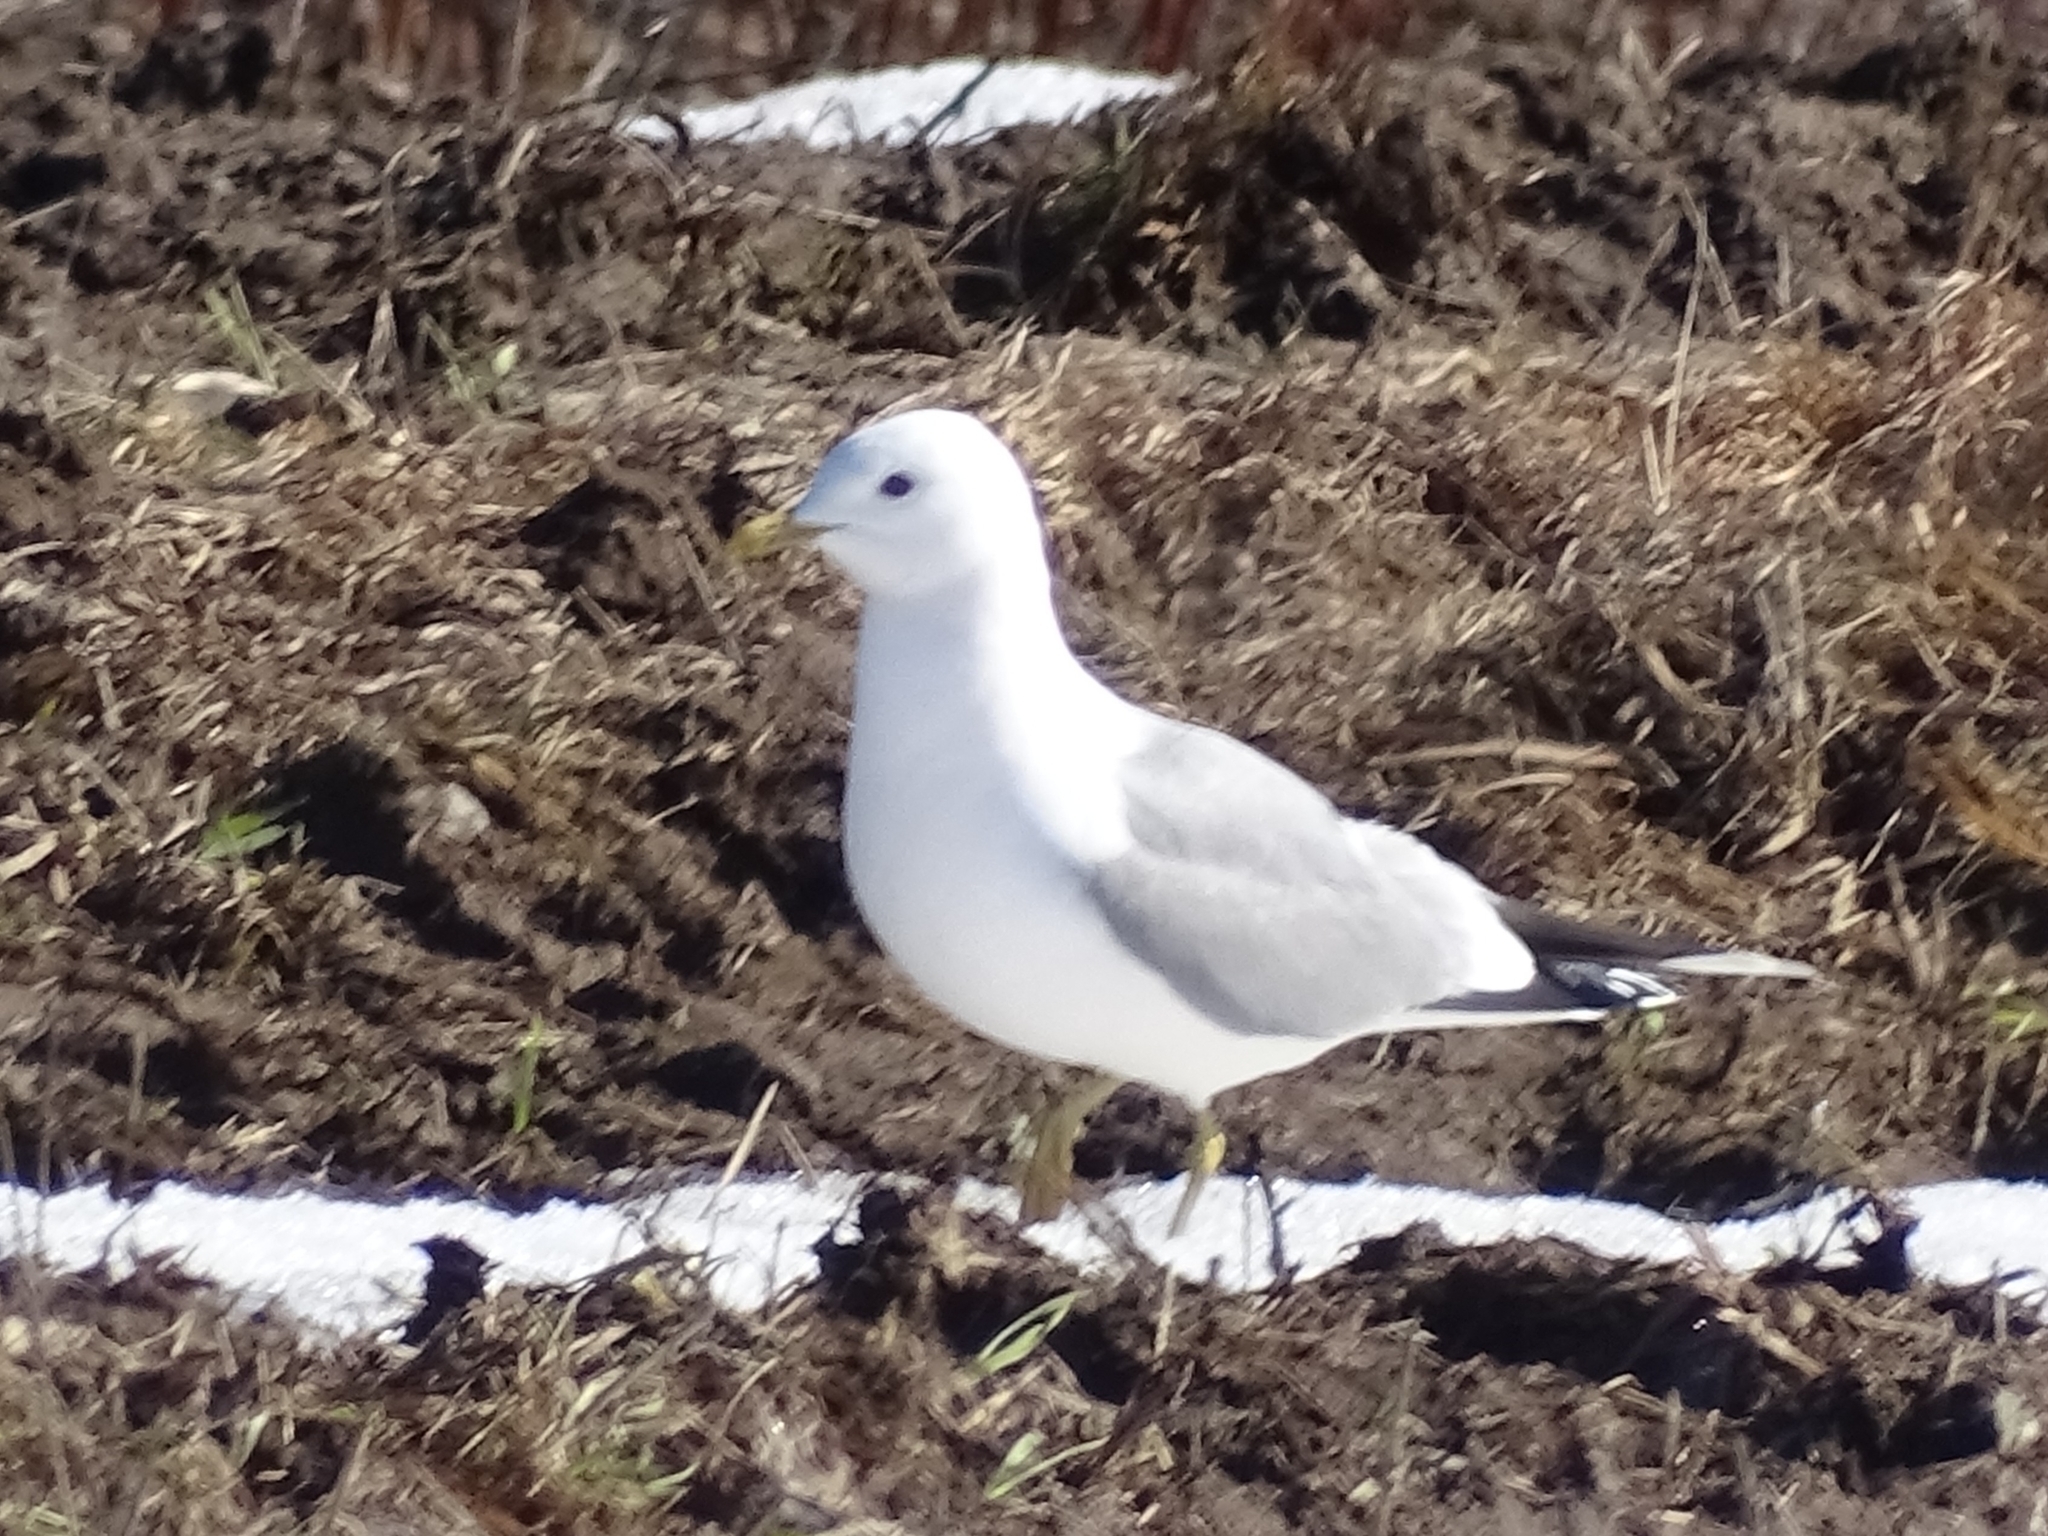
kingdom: Animalia
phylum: Chordata
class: Aves
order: Charadriiformes
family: Laridae
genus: Larus
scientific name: Larus canus
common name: Mew gull
